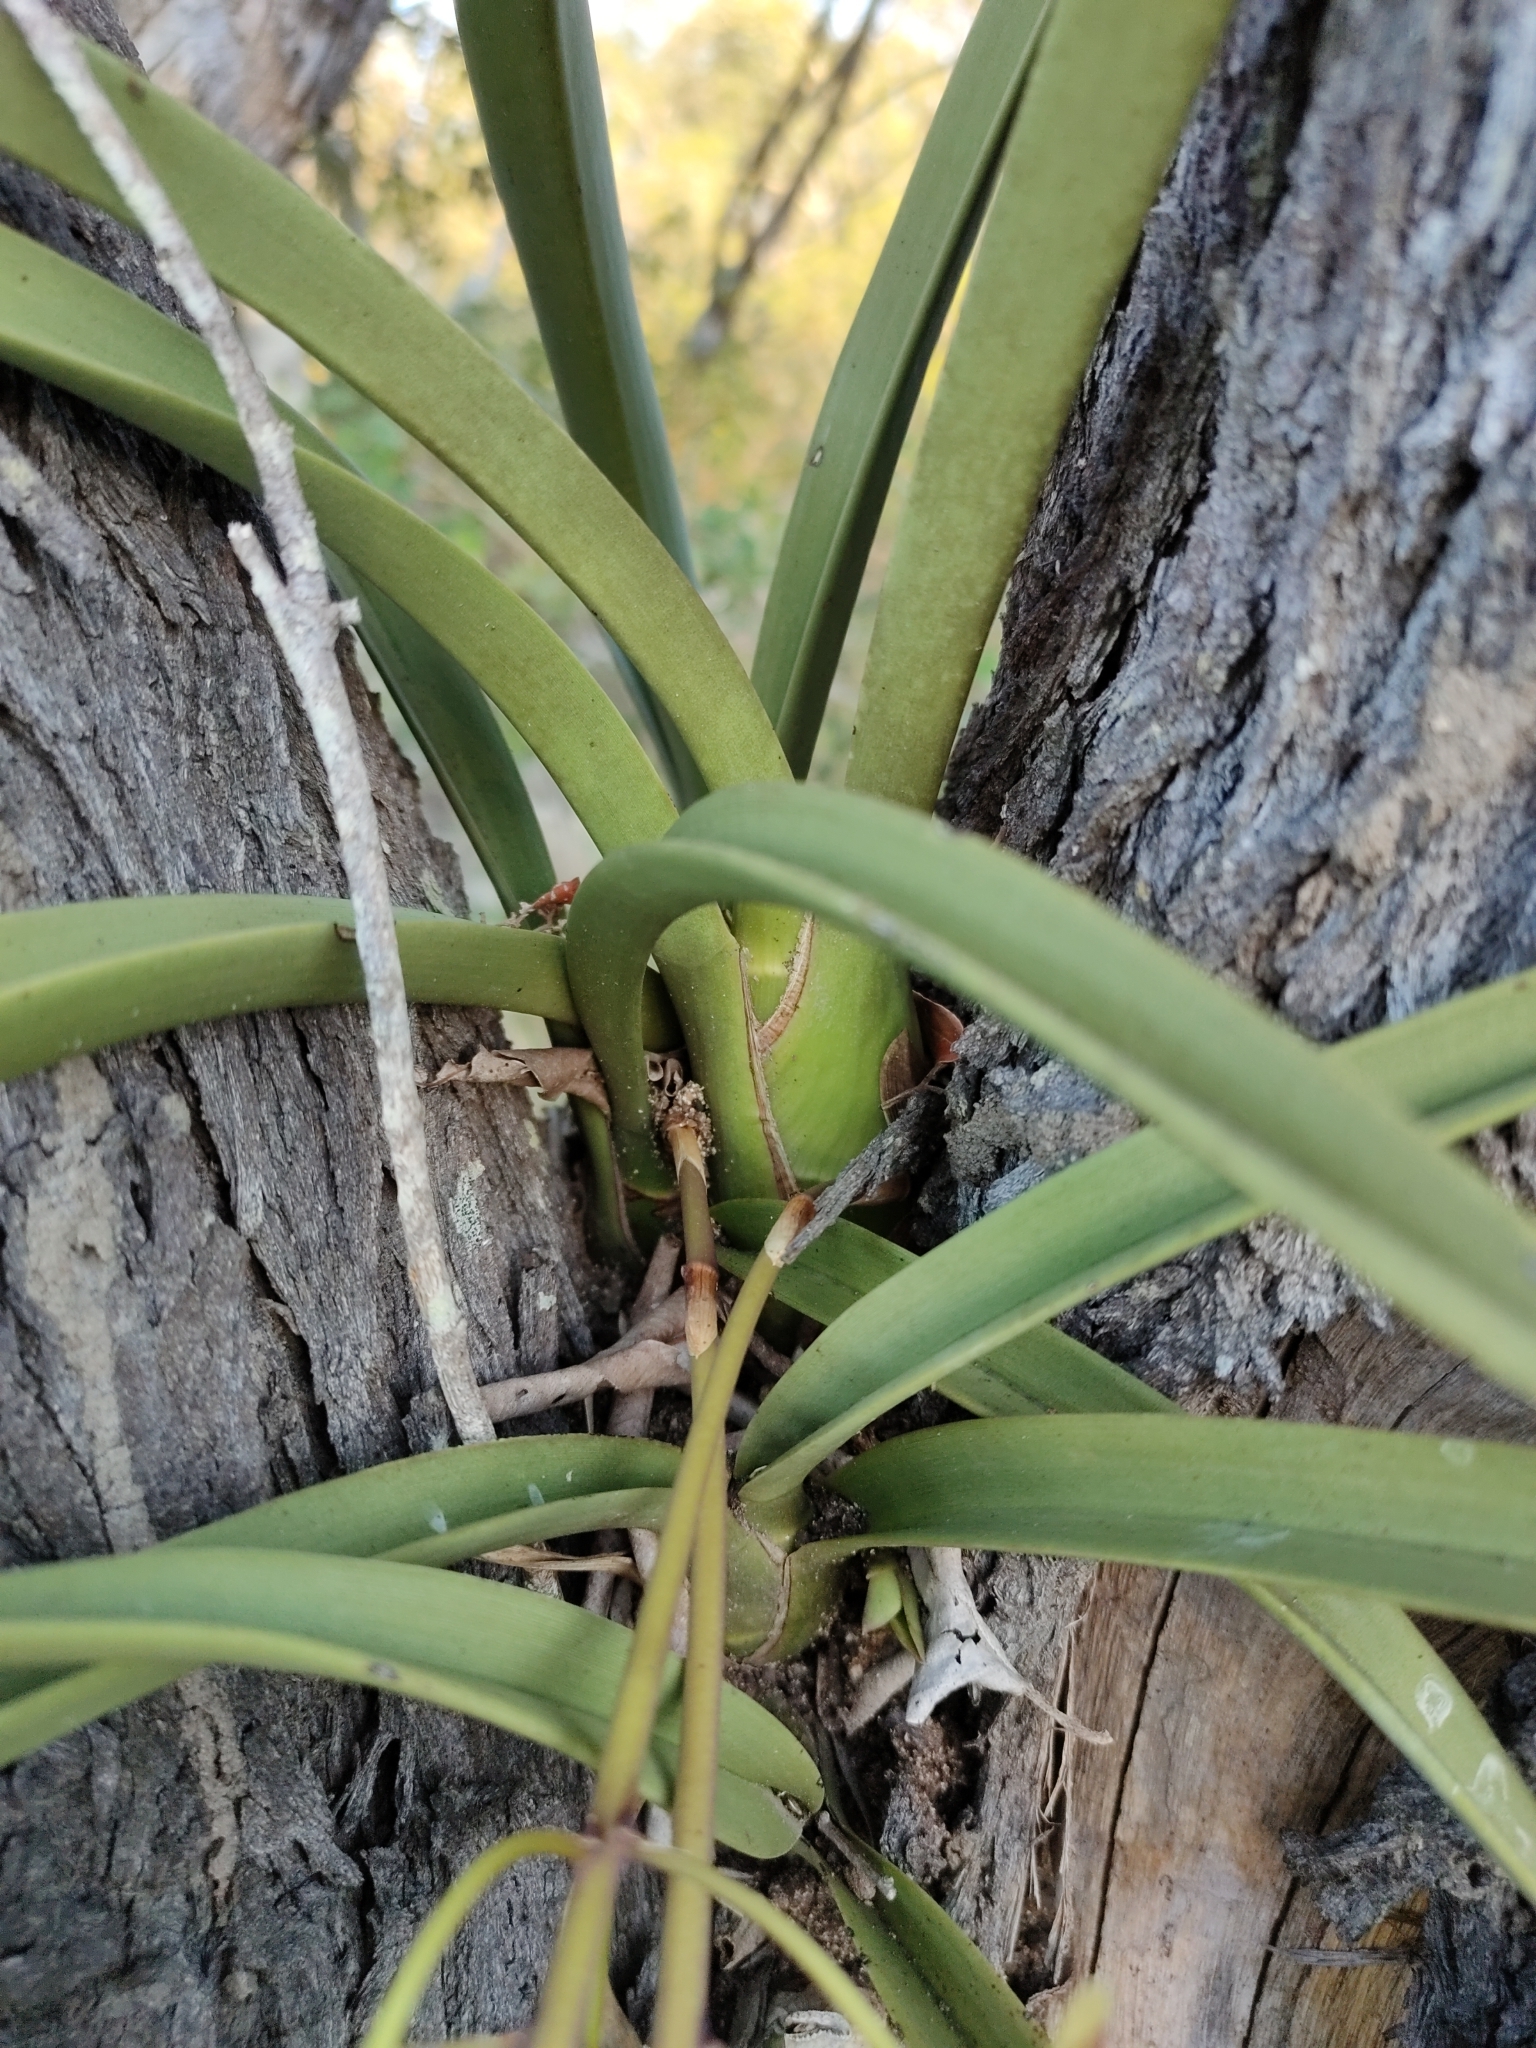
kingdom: Plantae
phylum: Tracheophyta
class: Liliopsida
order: Asparagales
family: Orchidaceae
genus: Cymbidium
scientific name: Cymbidium canaliculatum
